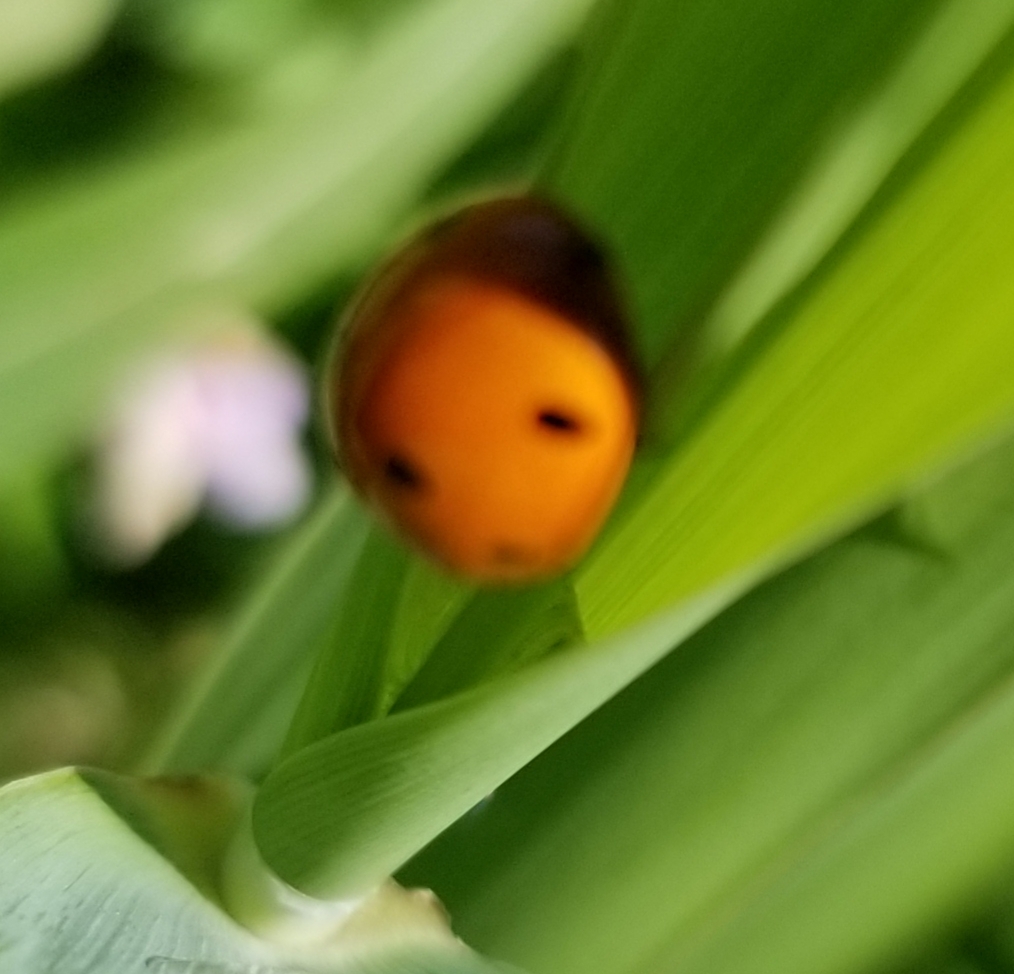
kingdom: Animalia
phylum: Arthropoda
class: Insecta
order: Coleoptera
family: Coccinellidae
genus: Coccinella
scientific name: Coccinella septempunctata
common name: Sevenspotted lady beetle
